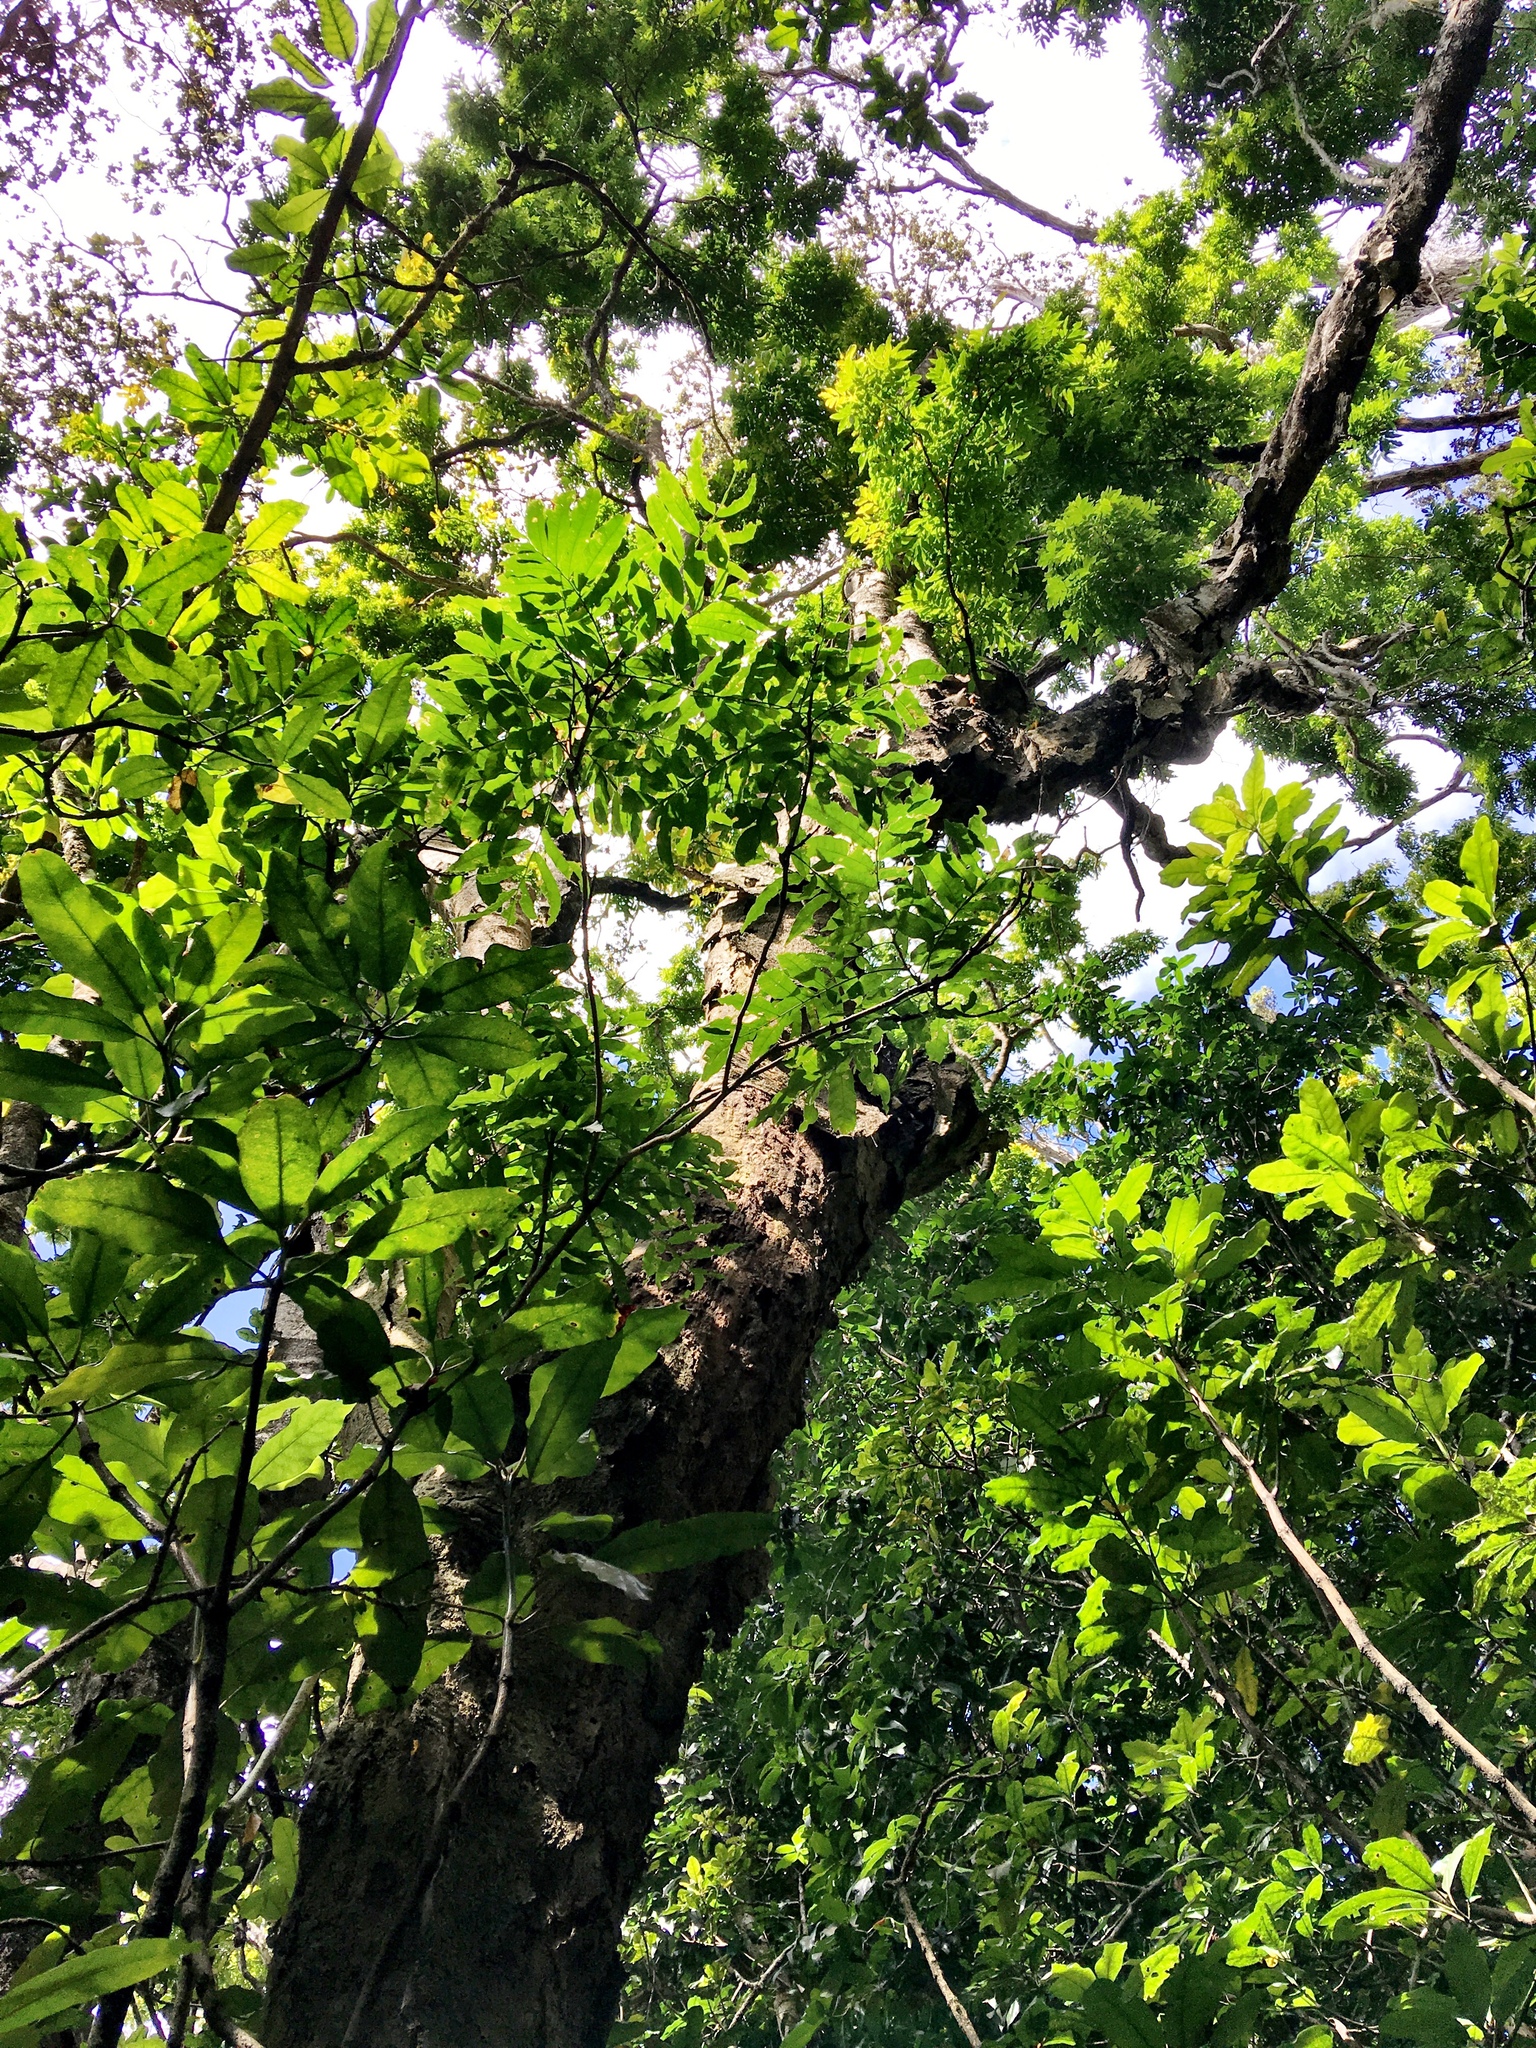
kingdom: Plantae
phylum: Tracheophyta
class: Magnoliopsida
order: Caryophyllales
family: Nyctaginaceae
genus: Ceodes
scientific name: Ceodes brunoniana
